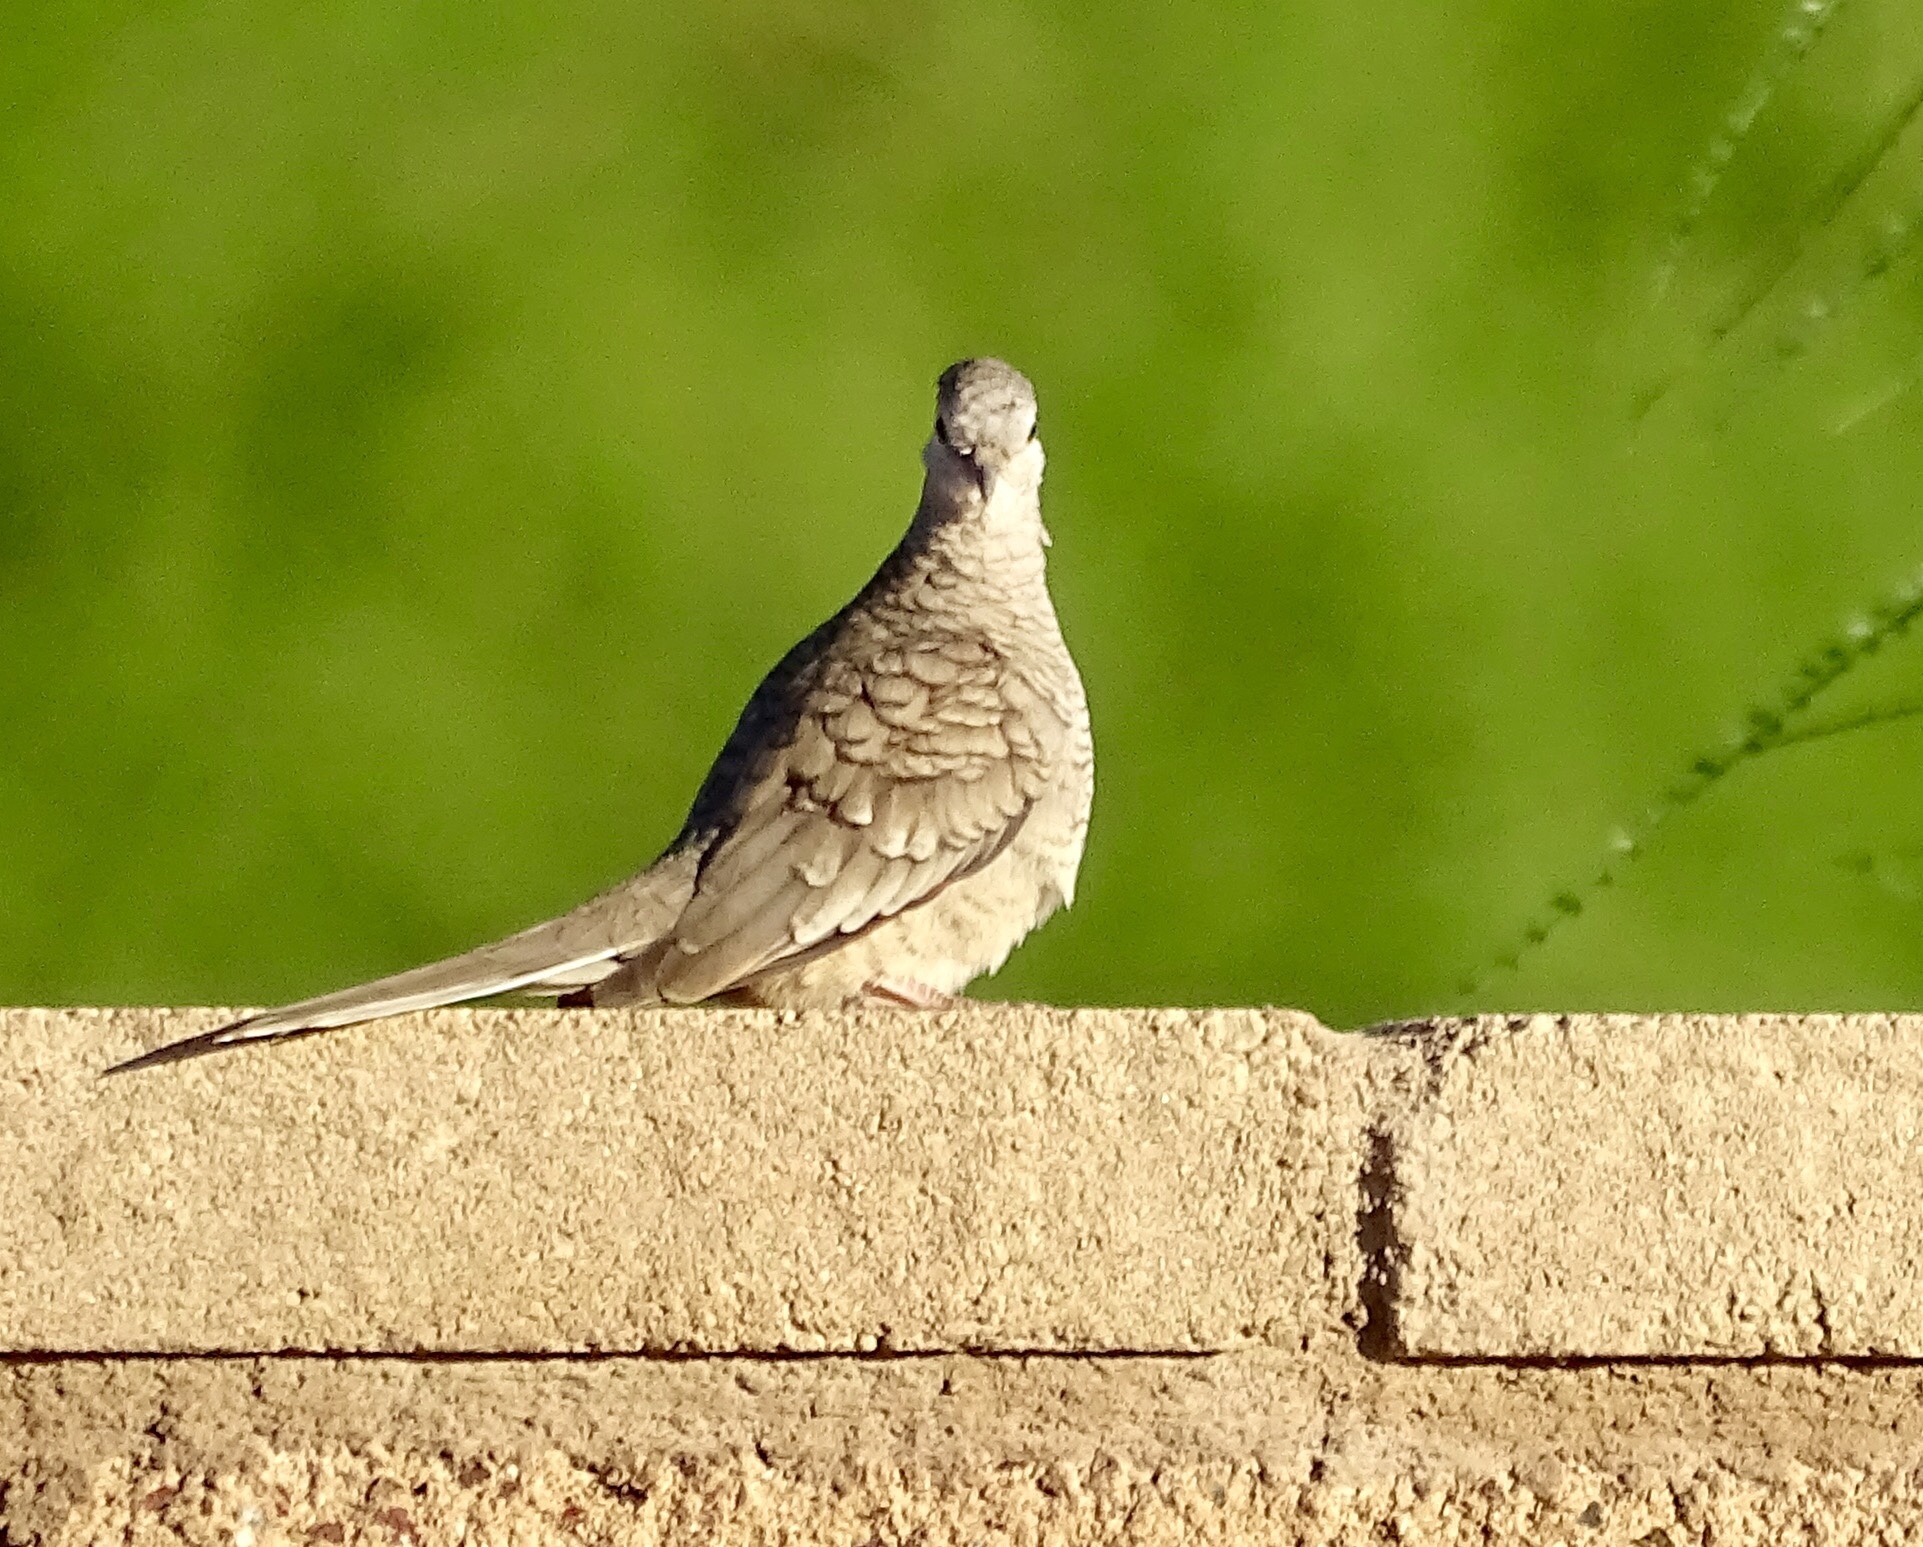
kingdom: Animalia
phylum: Chordata
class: Aves
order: Columbiformes
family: Columbidae
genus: Columbina
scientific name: Columbina inca
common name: Inca dove
